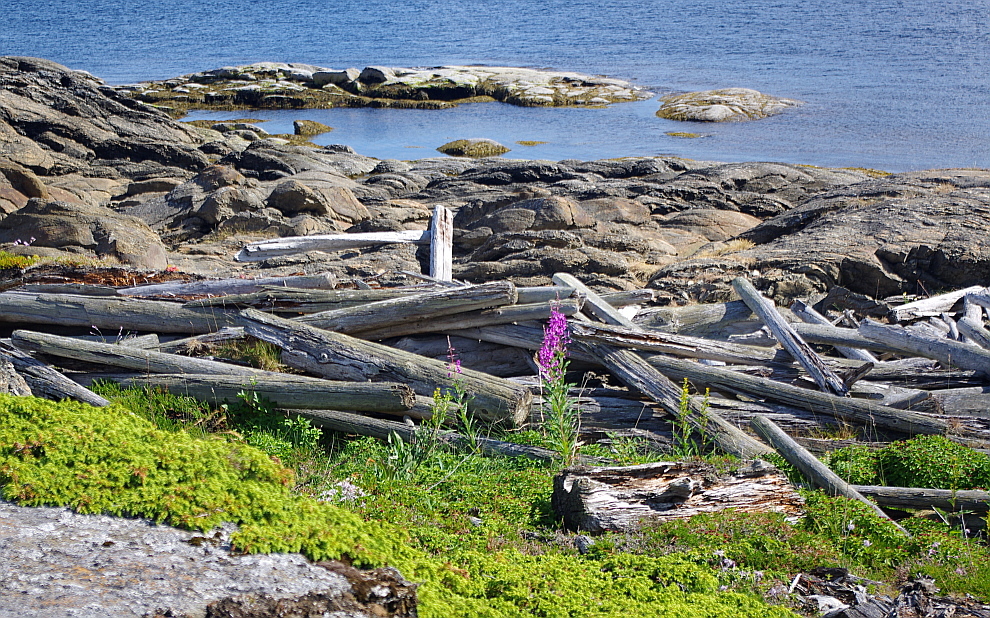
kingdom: Plantae
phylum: Tracheophyta
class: Magnoliopsida
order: Myrtales
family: Onagraceae
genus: Chamaenerion
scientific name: Chamaenerion angustifolium
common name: Fireweed
